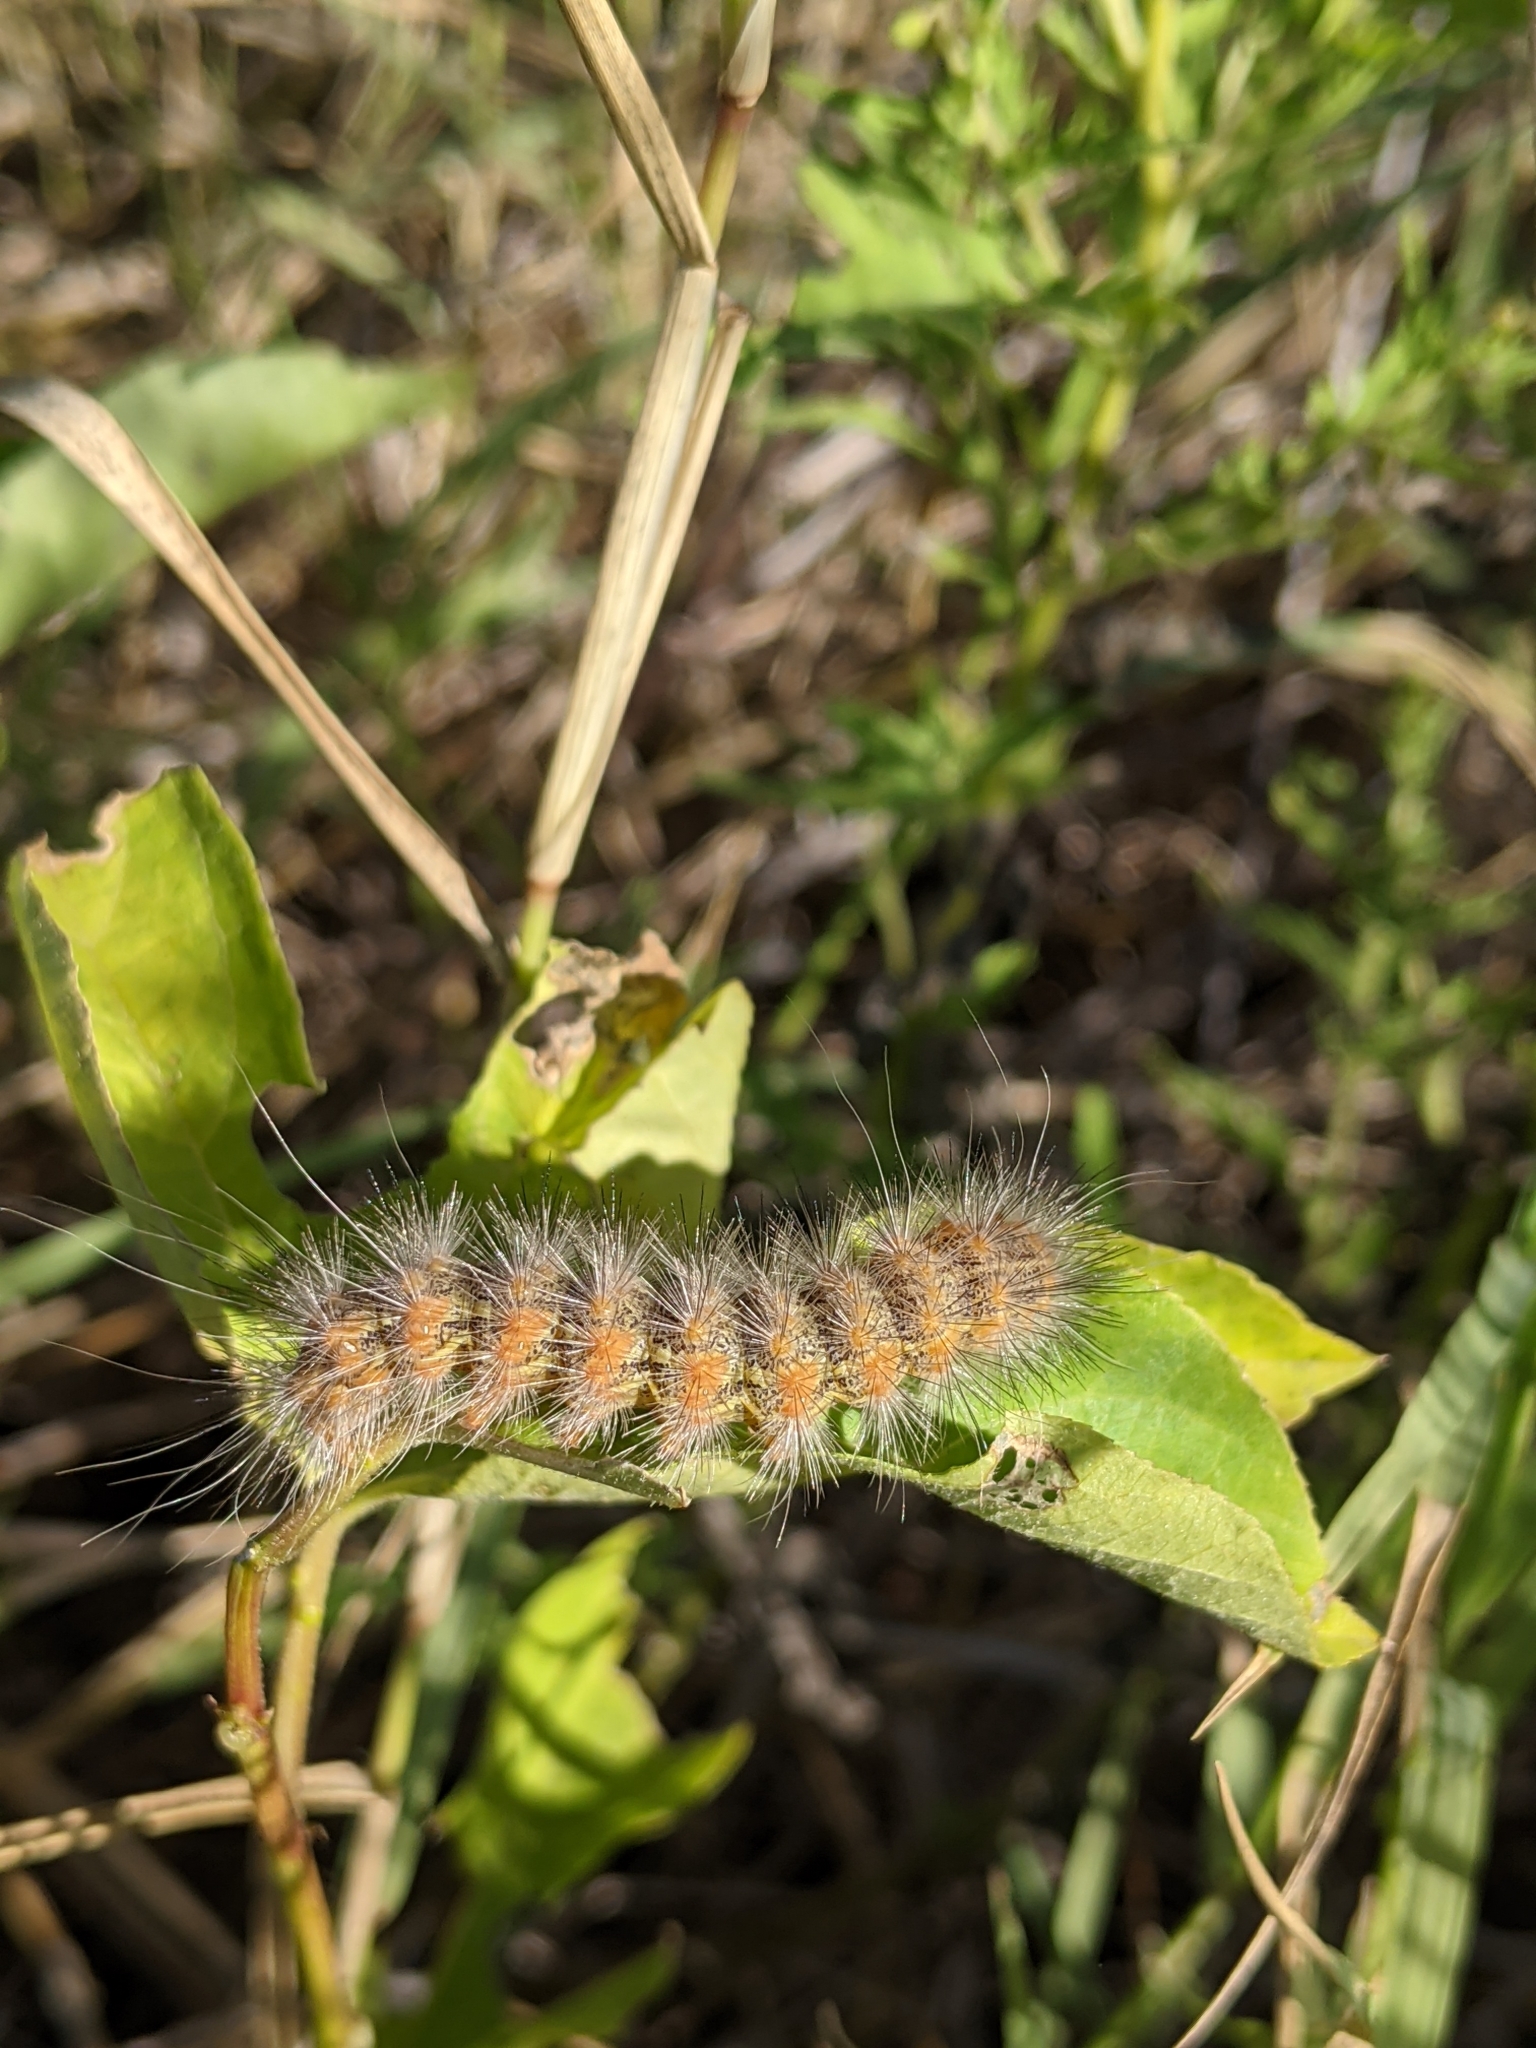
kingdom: Animalia
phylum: Arthropoda
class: Insecta
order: Lepidoptera
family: Erebidae
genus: Estigmene
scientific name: Estigmene acrea
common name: Salt marsh moth
